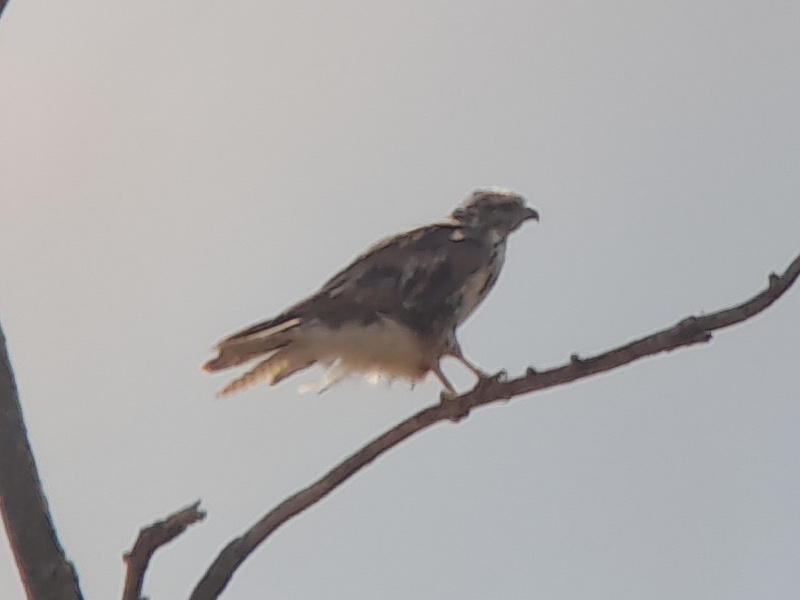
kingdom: Animalia
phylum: Chordata
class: Aves
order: Accipitriformes
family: Accipitridae
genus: Buteo
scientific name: Buteo buteo
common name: Common buzzard
